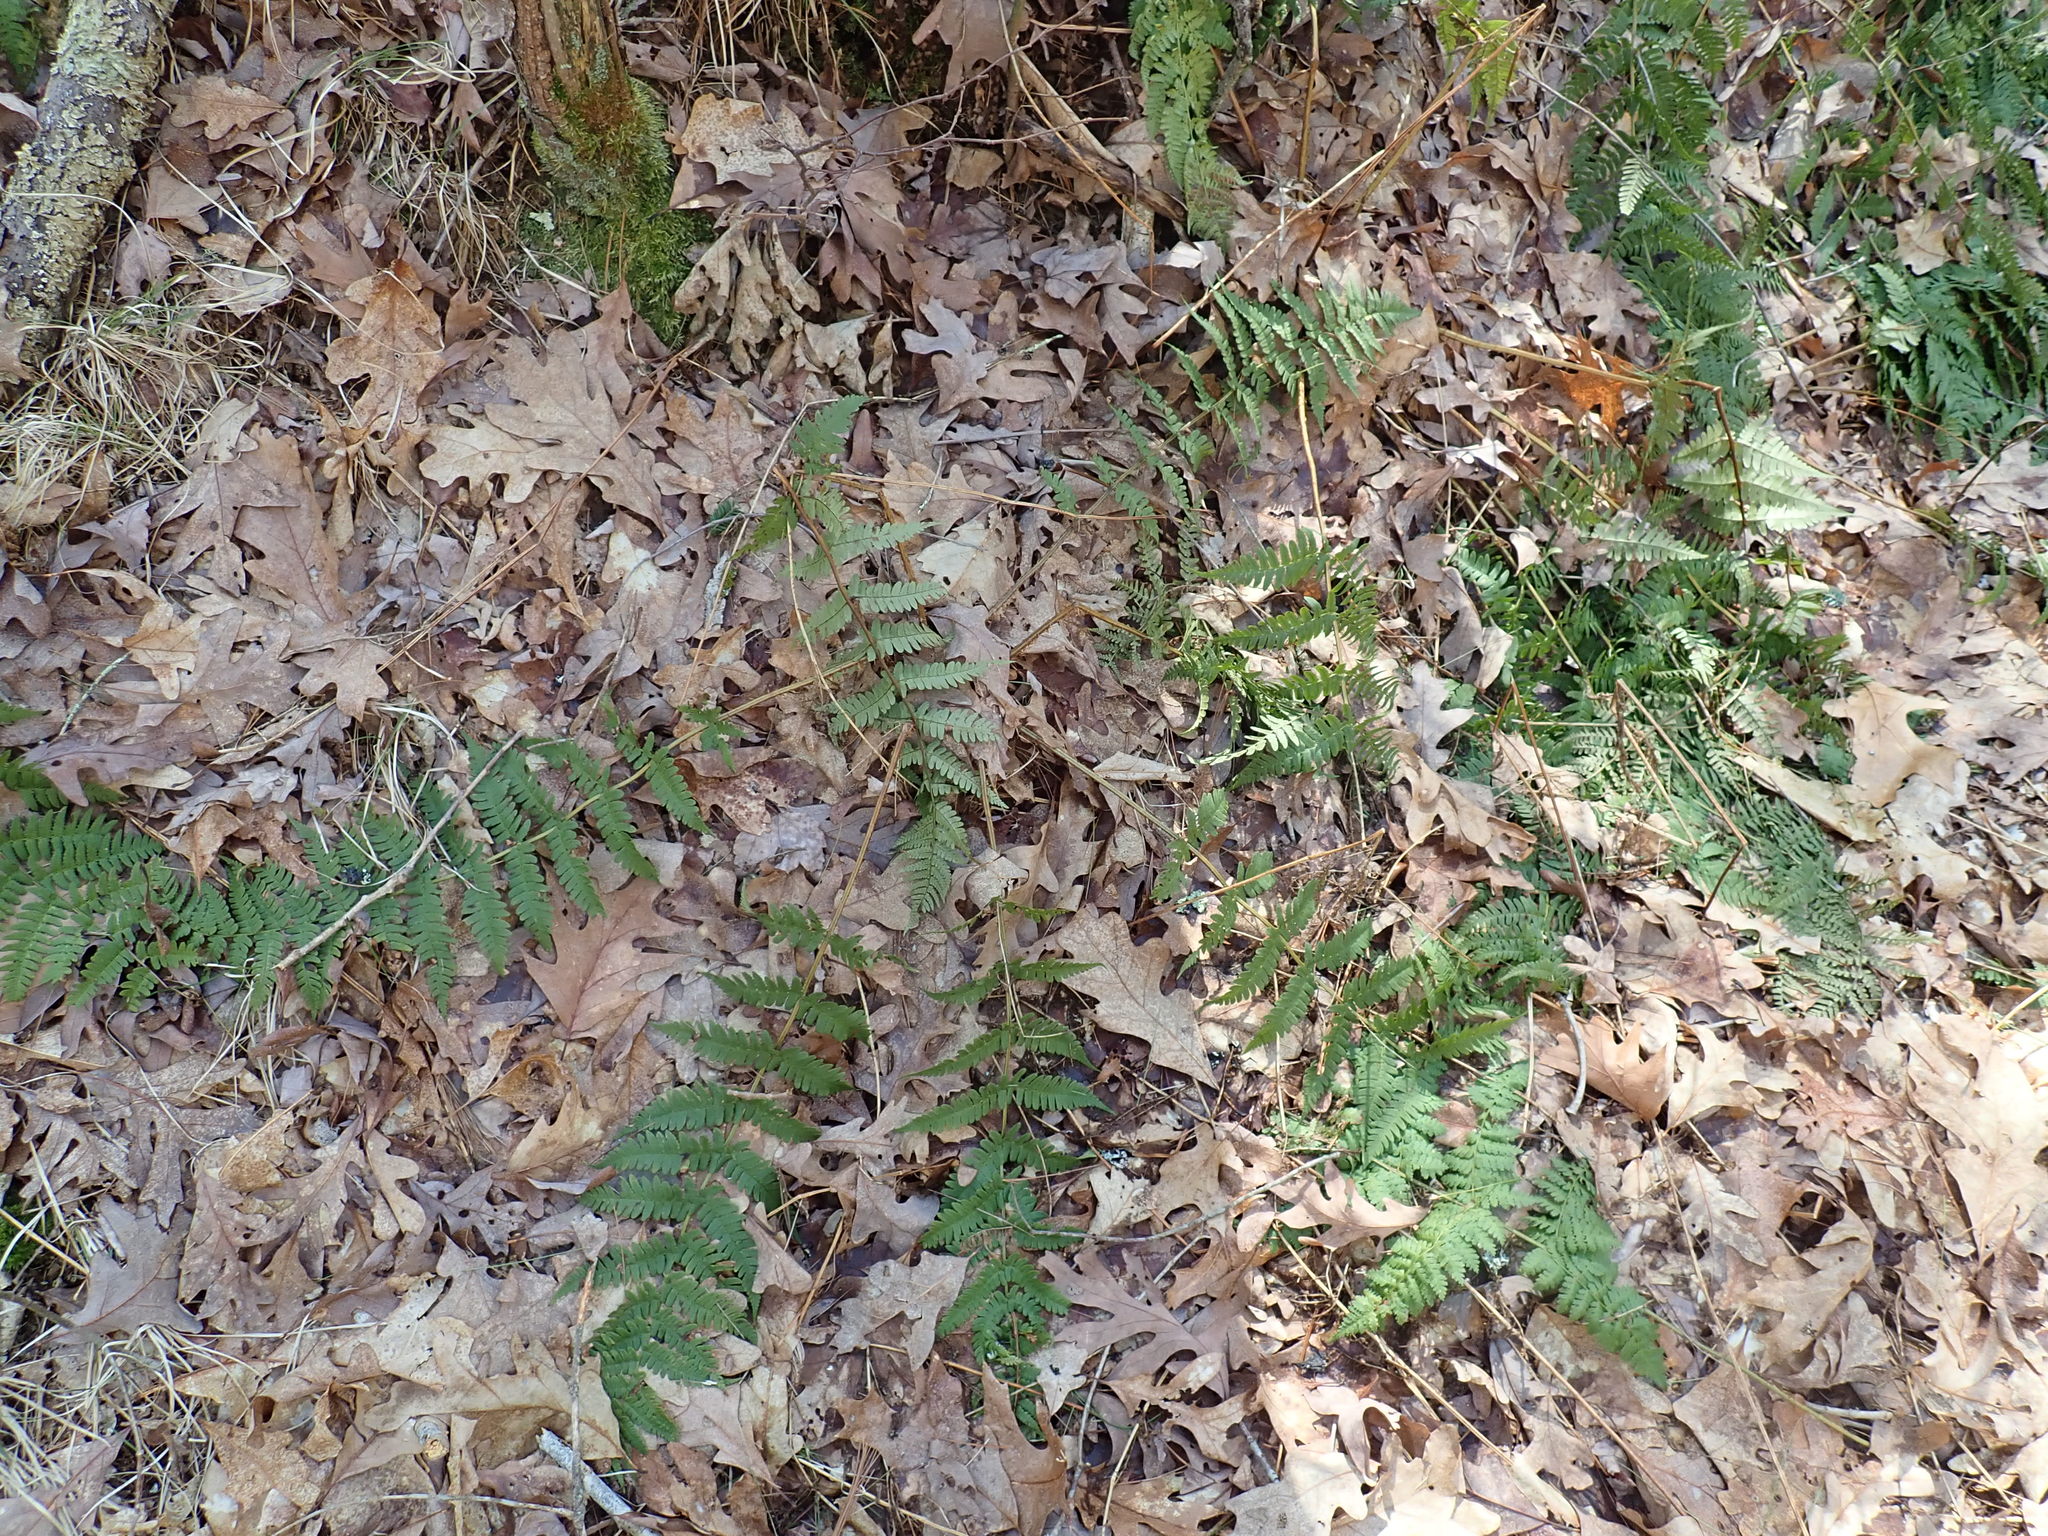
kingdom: Plantae
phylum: Tracheophyta
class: Polypodiopsida
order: Polypodiales
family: Dryopteridaceae
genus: Dryopteris
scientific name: Dryopteris marginalis
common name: Marginal wood fern
